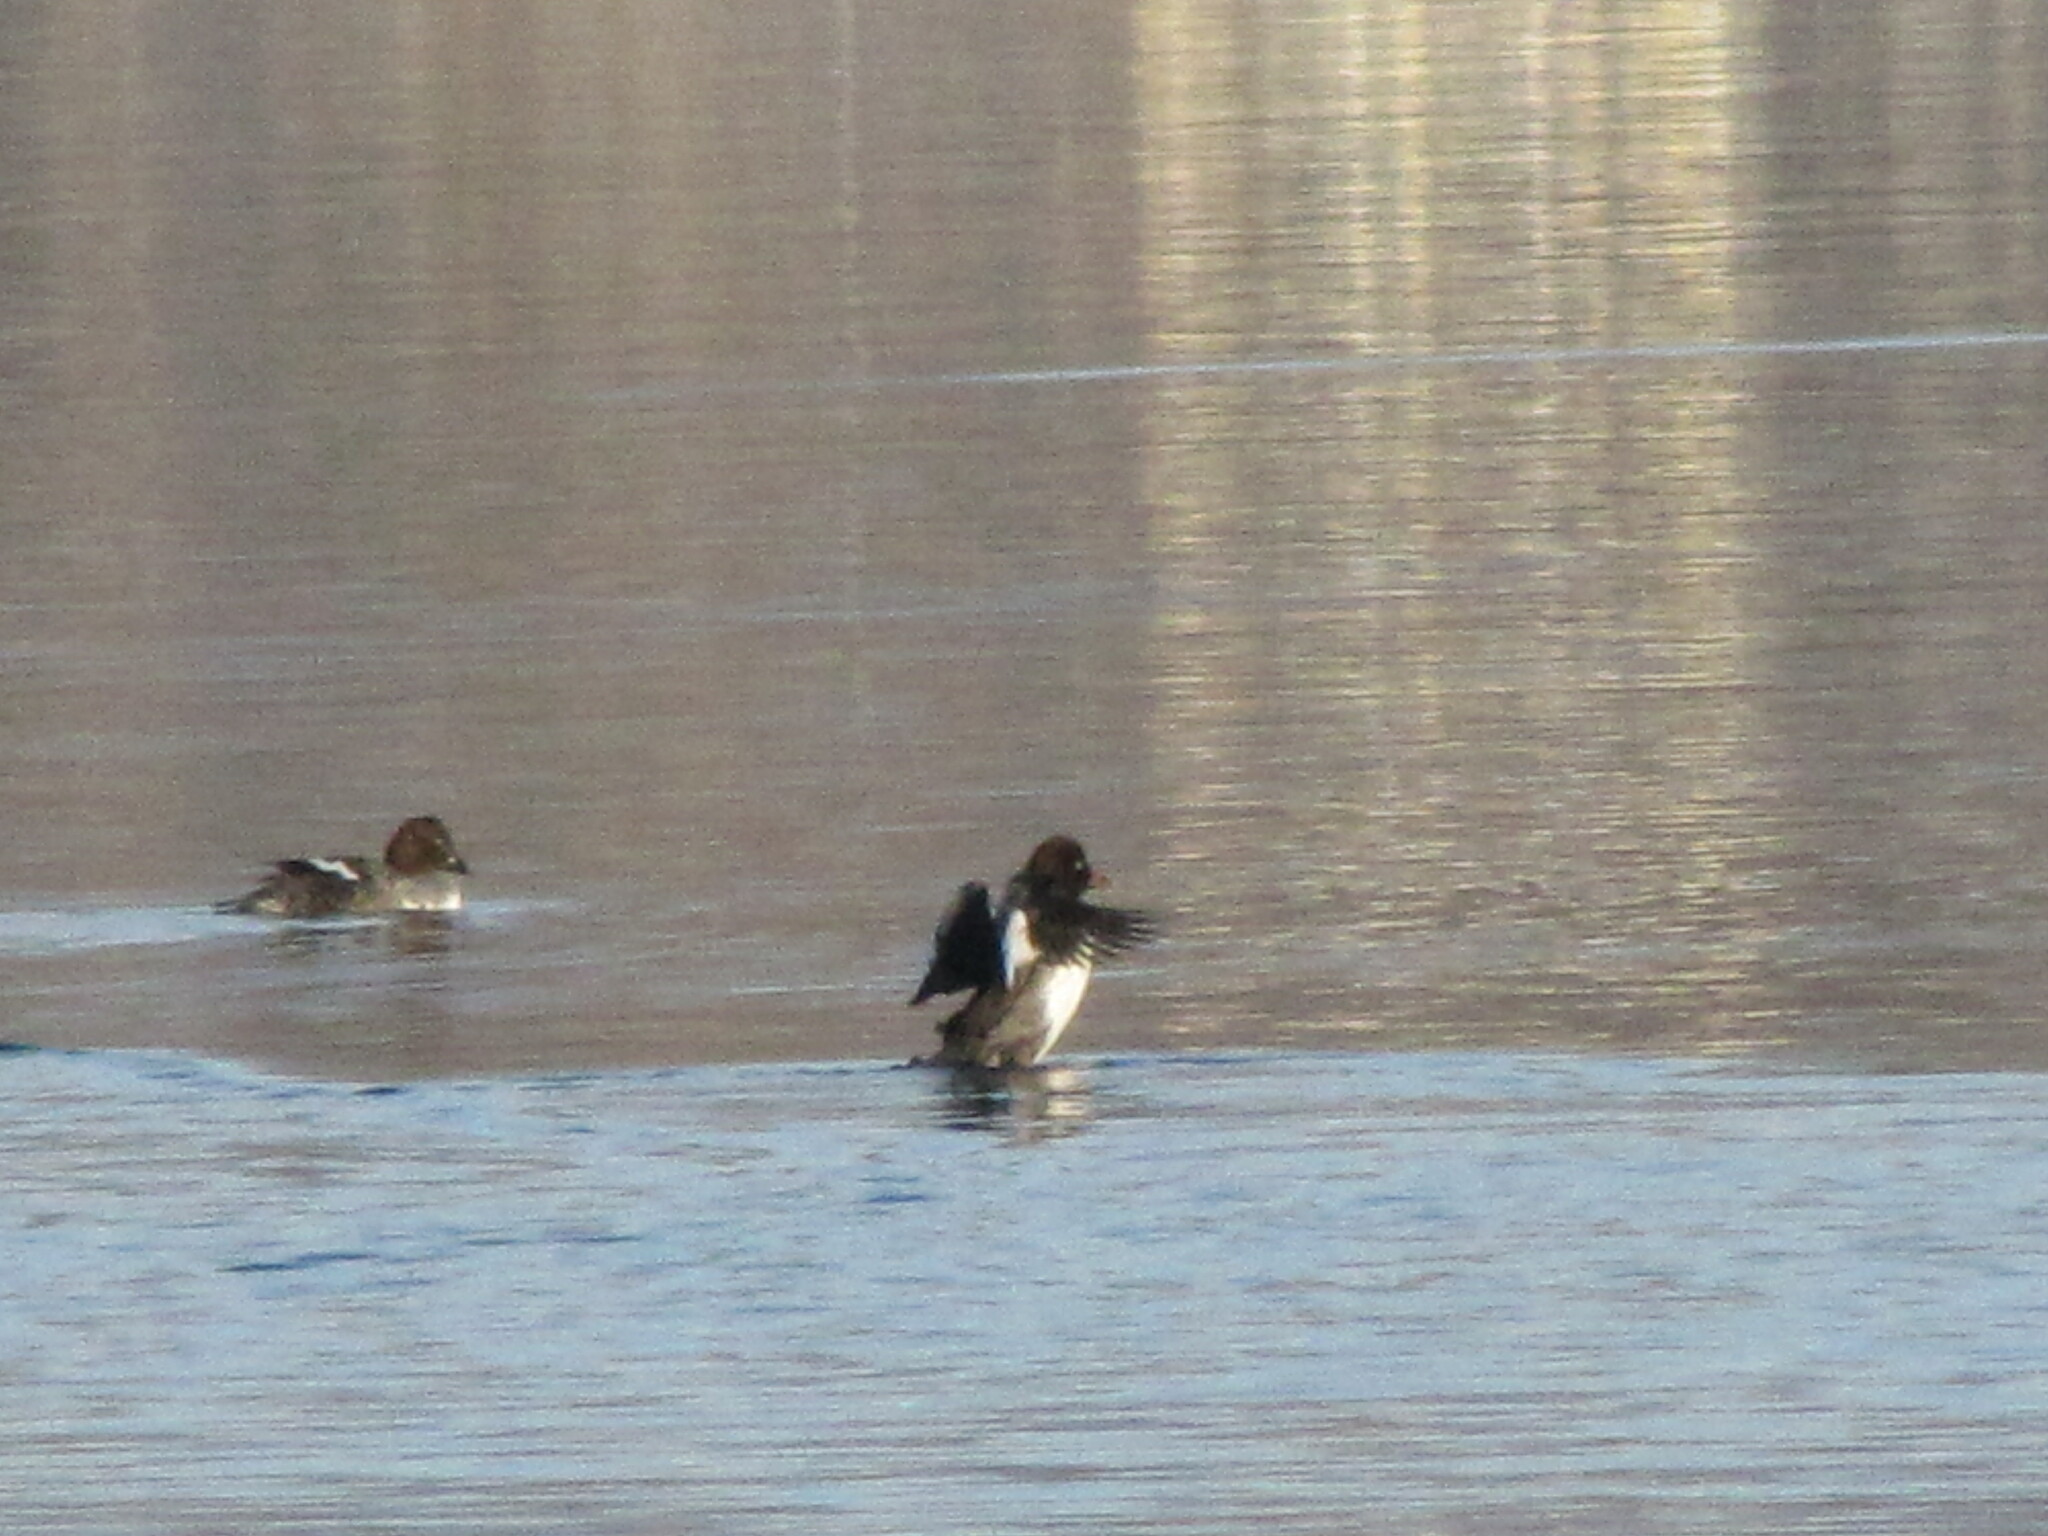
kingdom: Animalia
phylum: Chordata
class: Aves
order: Anseriformes
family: Anatidae
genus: Bucephala
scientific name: Bucephala clangula
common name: Common goldeneye
